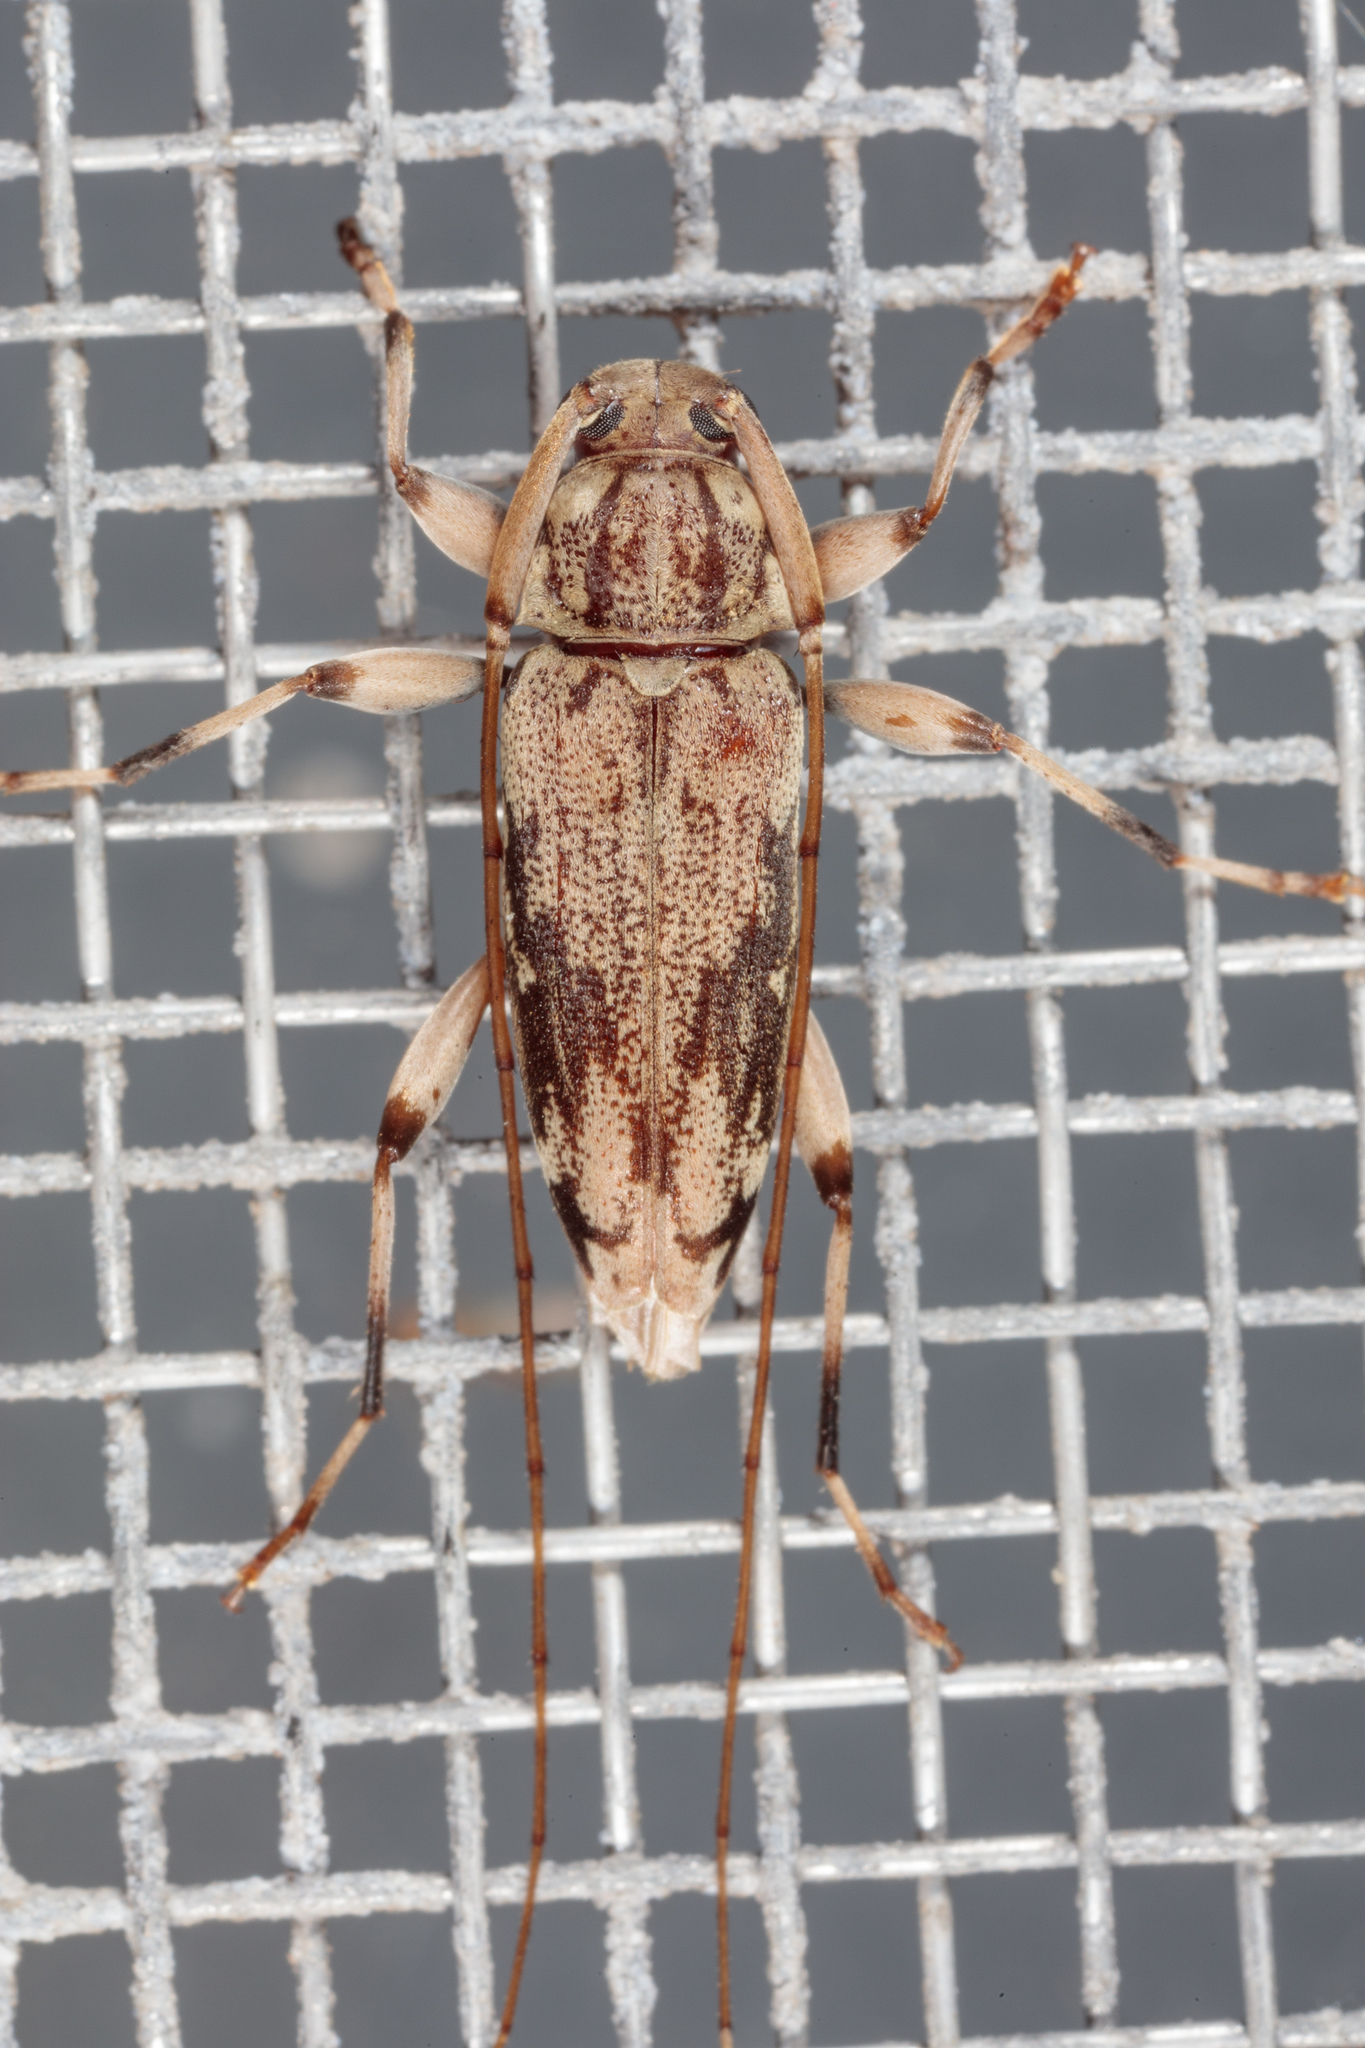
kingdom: Animalia
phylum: Arthropoda
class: Insecta
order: Coleoptera
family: Cerambycidae
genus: Lepturges
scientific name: Lepturges angulatus
